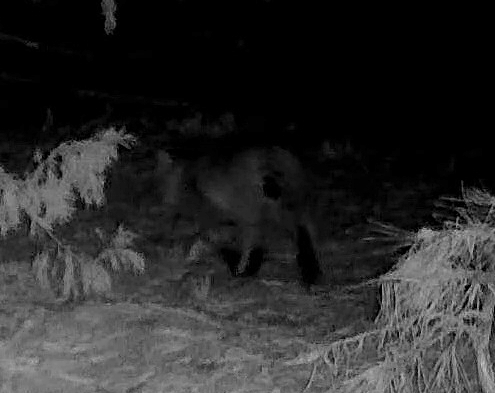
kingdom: Animalia
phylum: Chordata
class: Mammalia
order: Carnivora
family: Felidae
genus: Lynx
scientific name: Lynx rufus
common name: Bobcat
